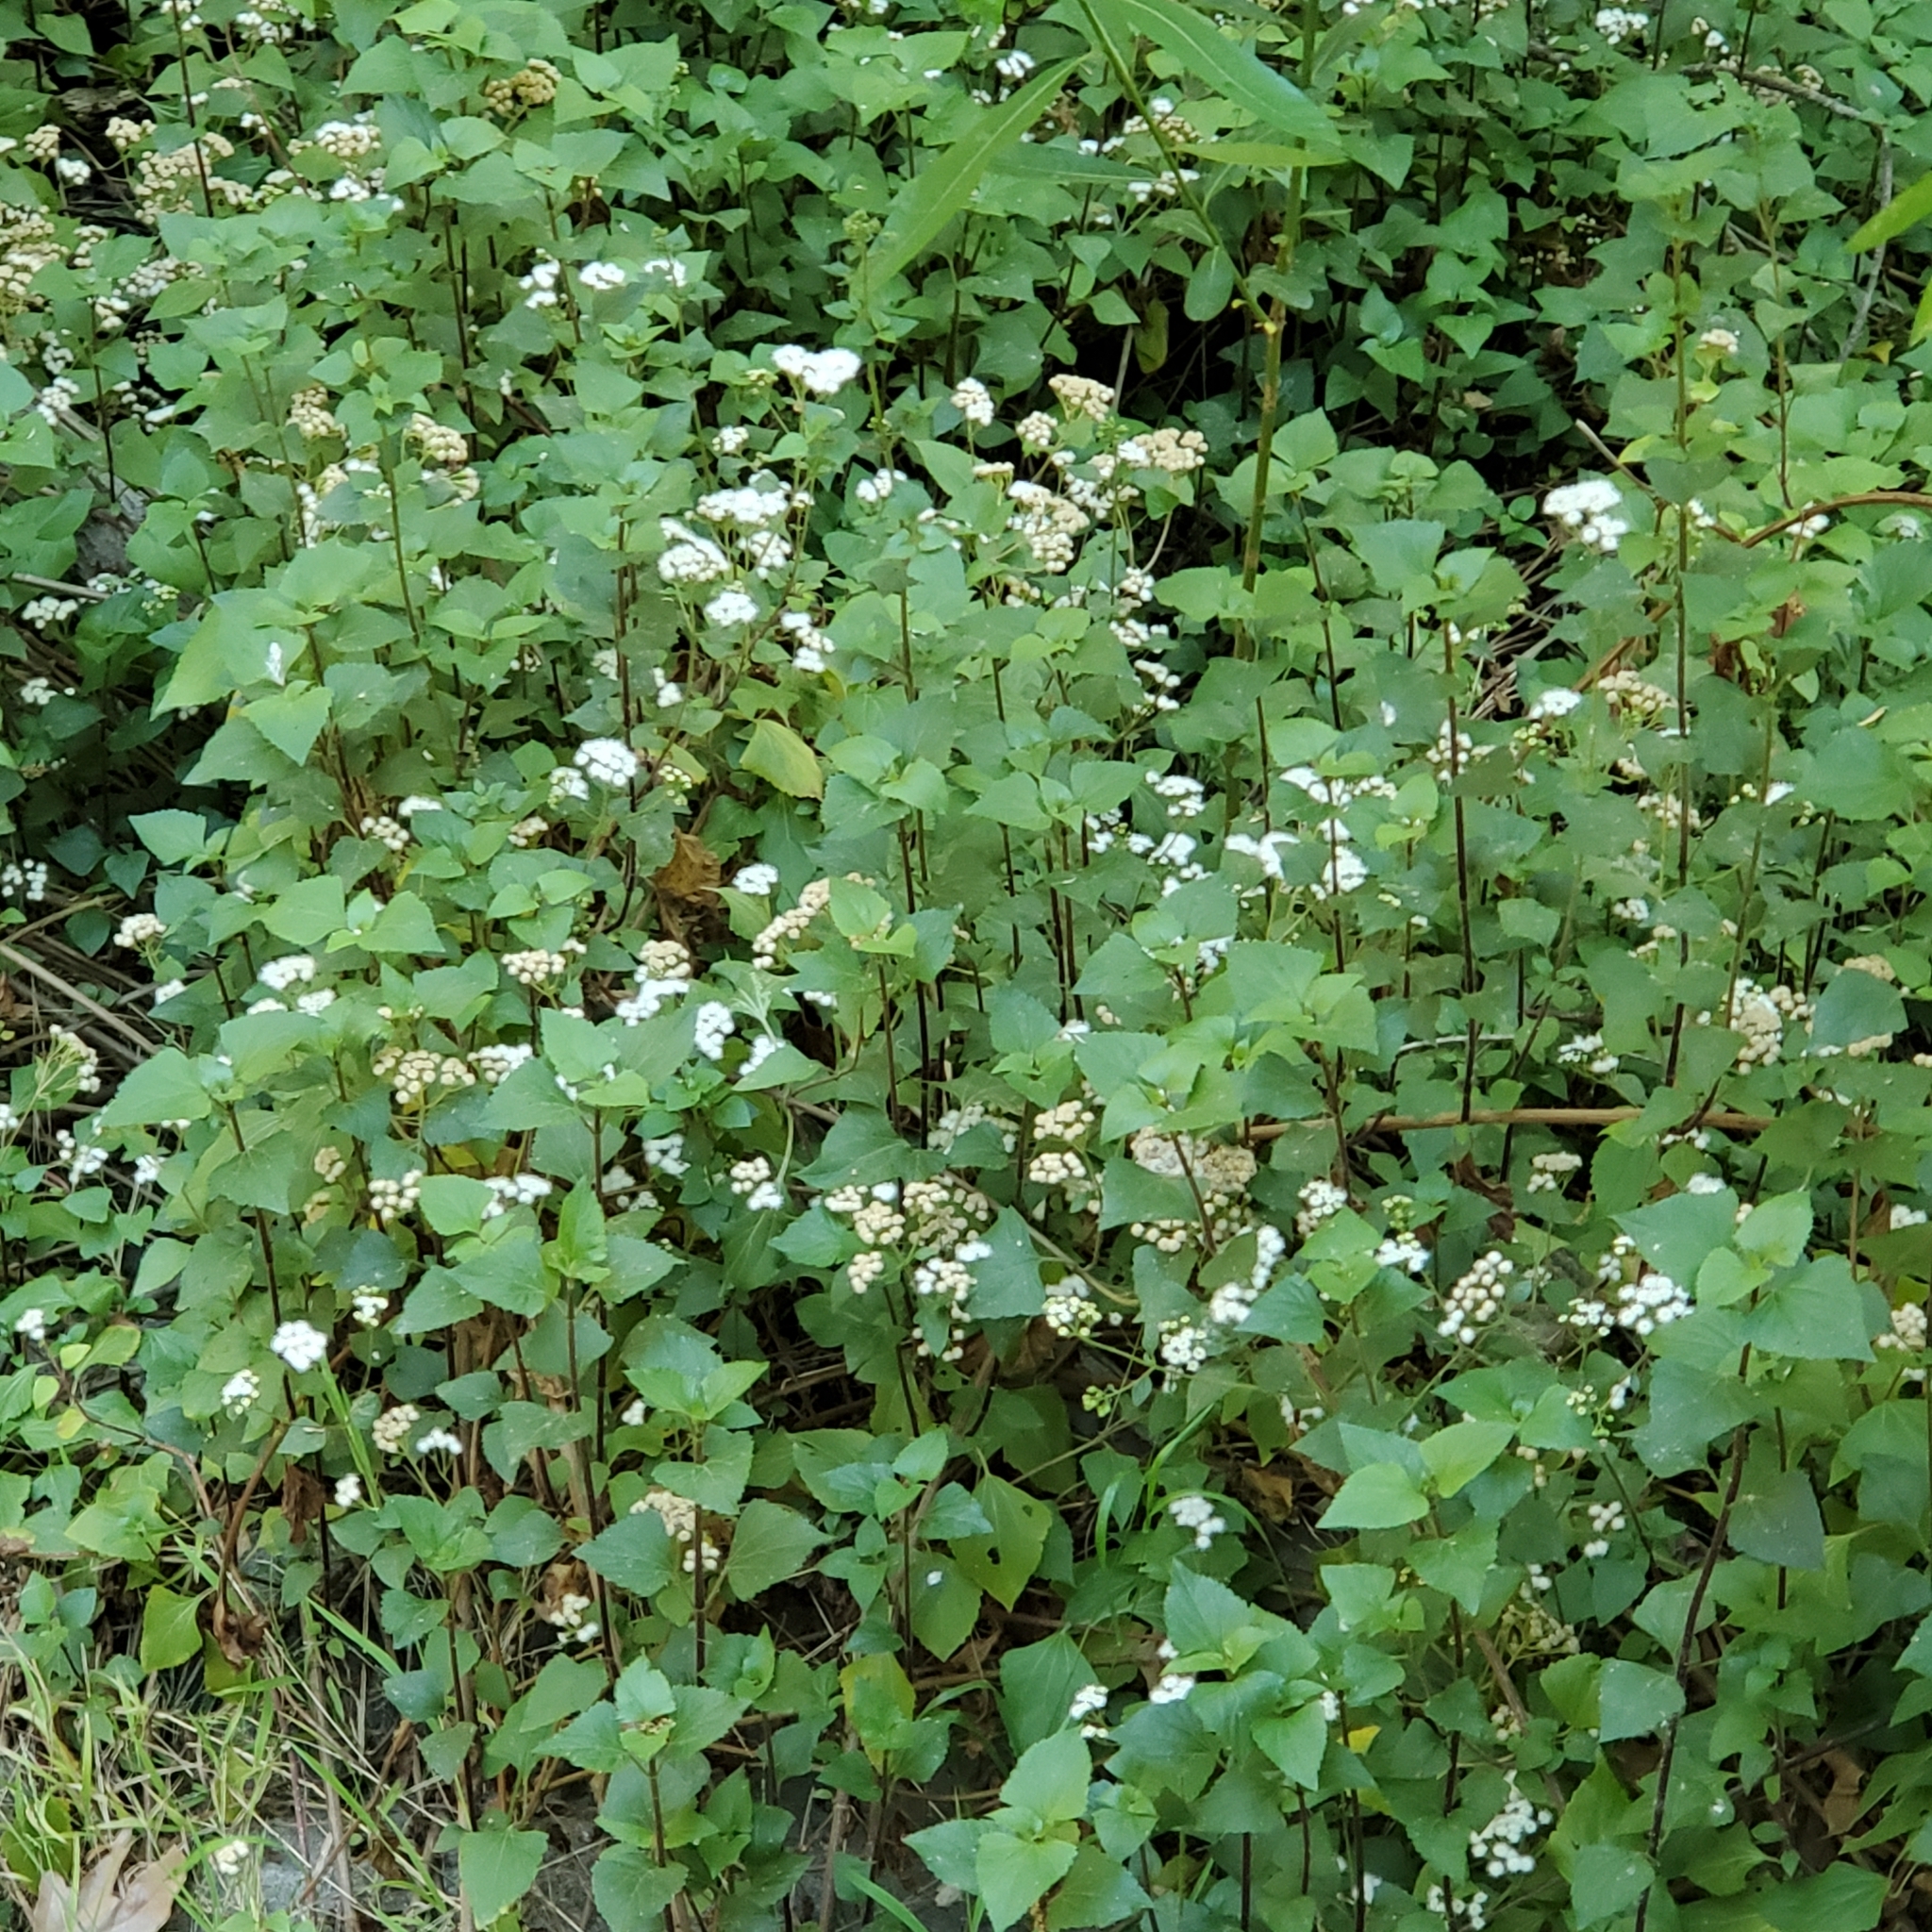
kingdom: Plantae
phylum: Tracheophyta
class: Magnoliopsida
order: Asterales
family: Asteraceae
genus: Ageratina
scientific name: Ageratina adenophora
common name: Sticky snakeroot
